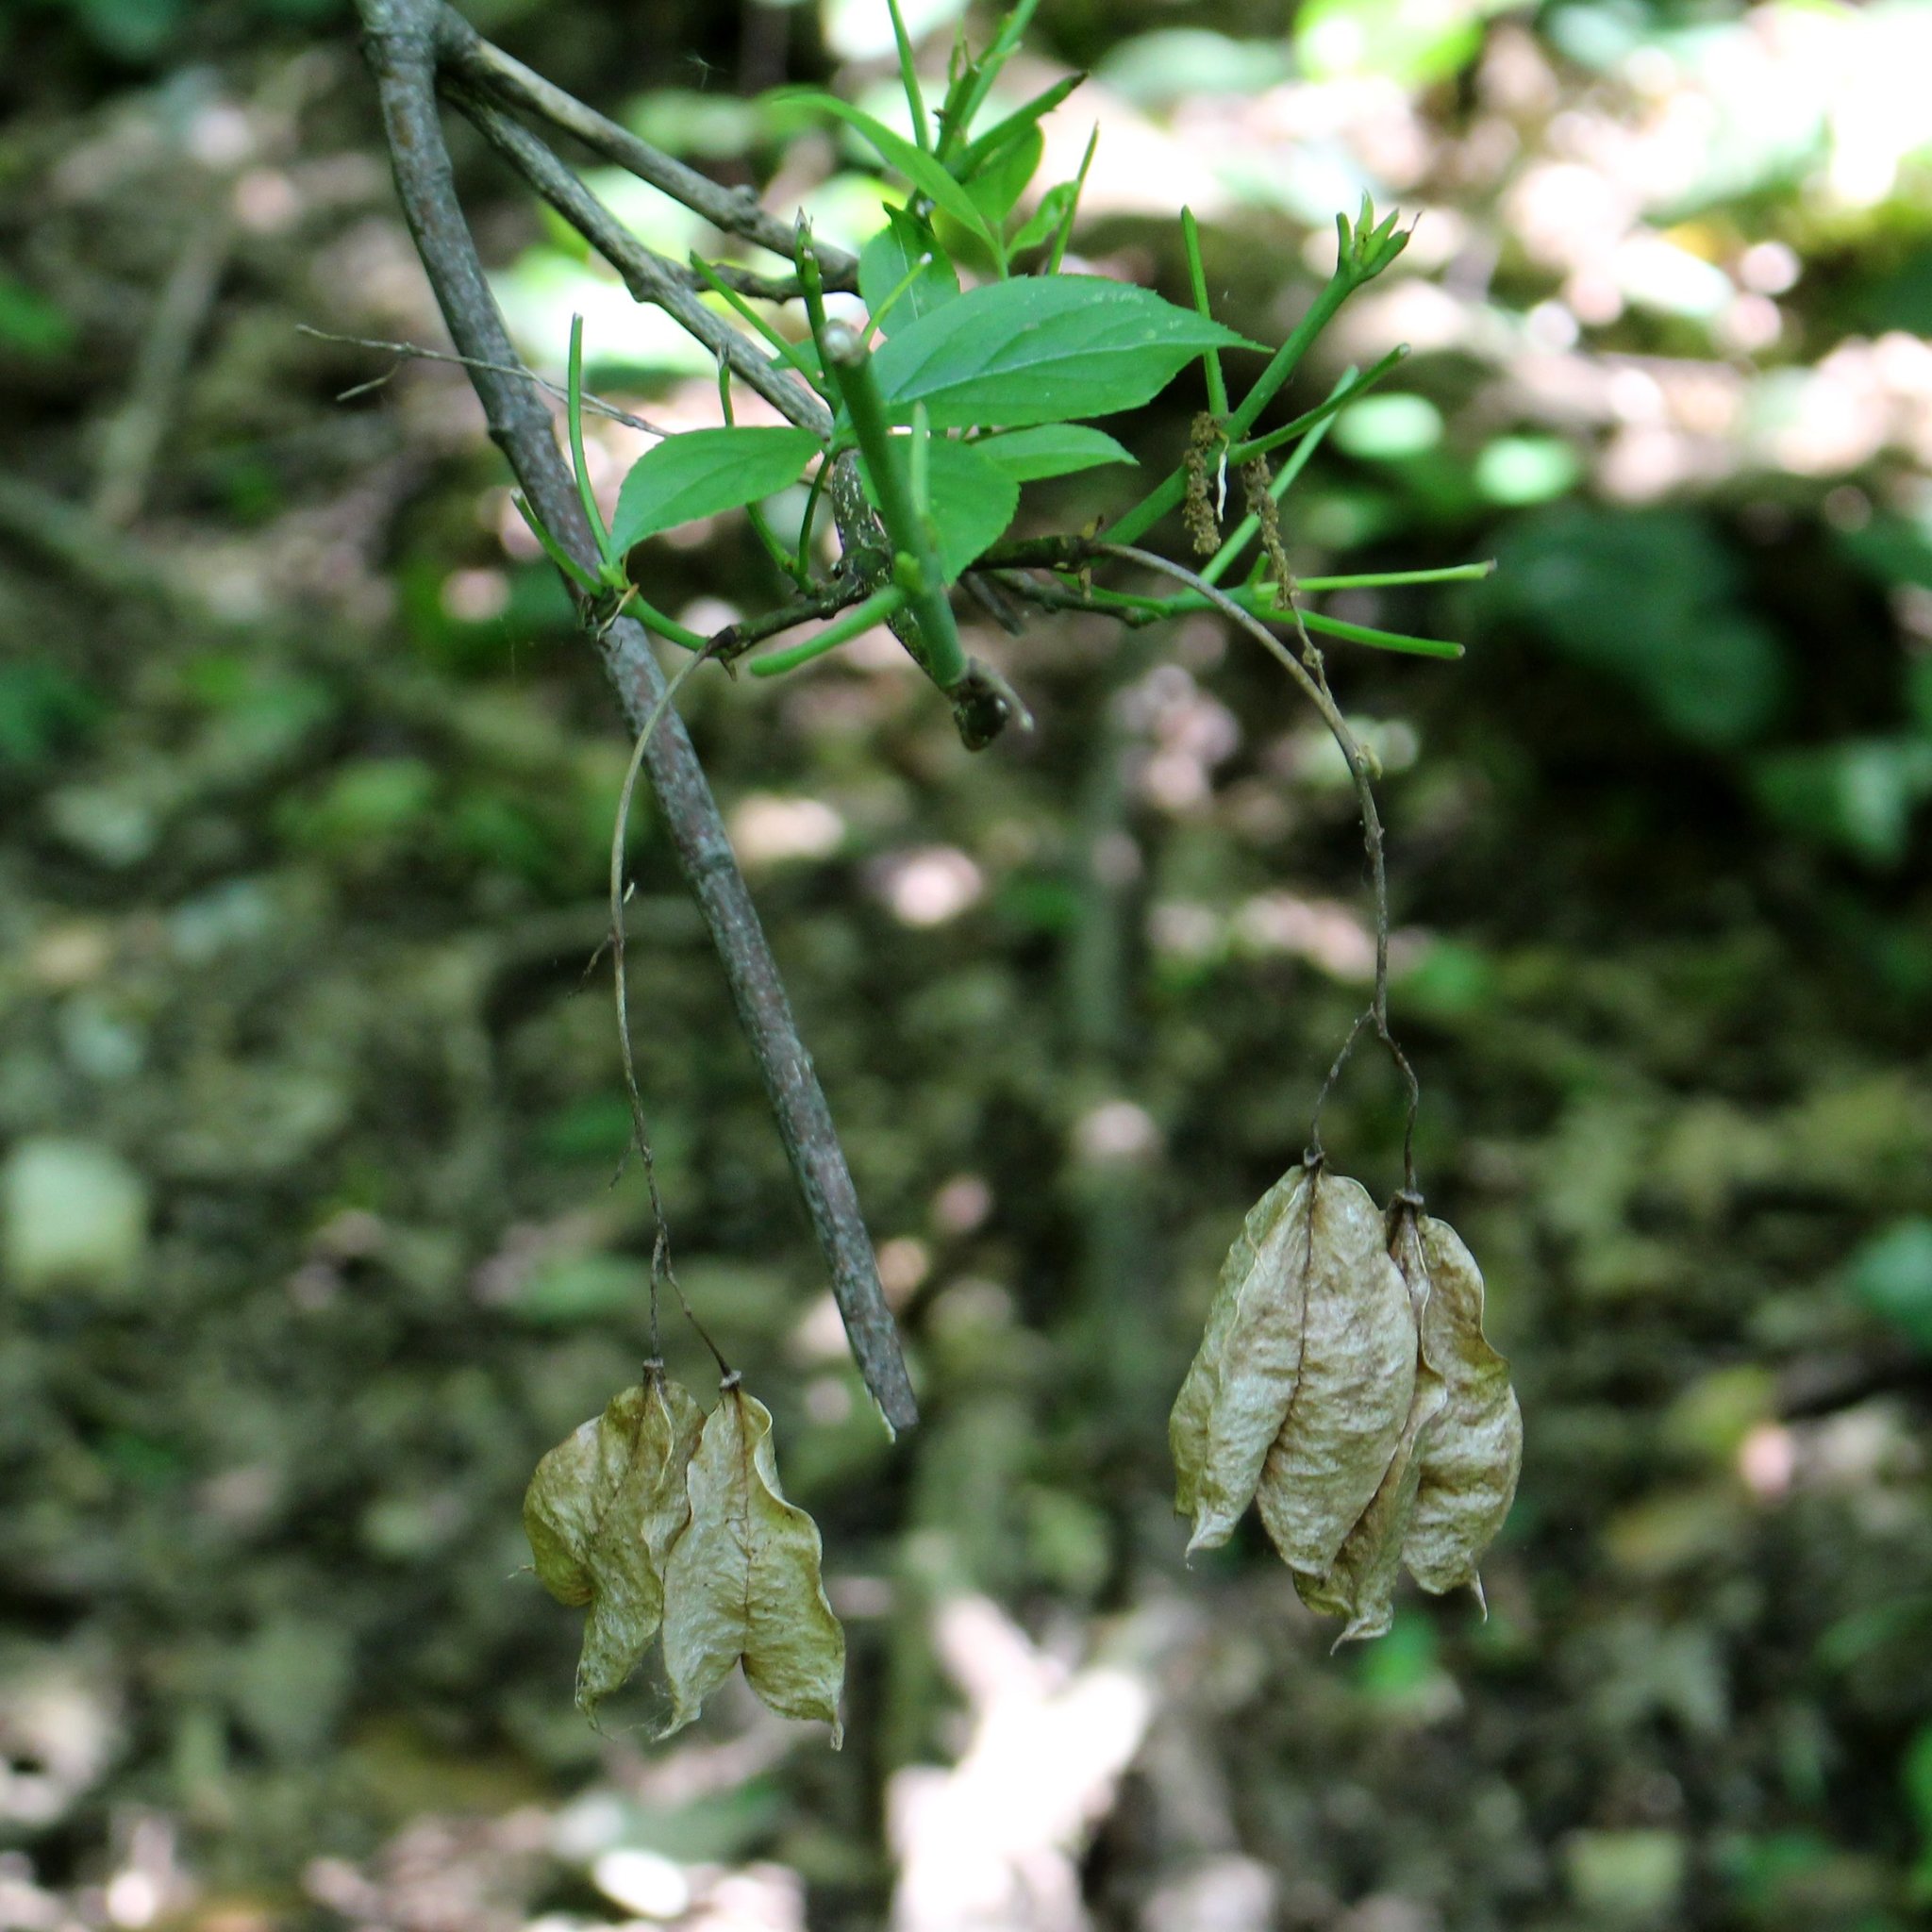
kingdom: Plantae
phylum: Tracheophyta
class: Magnoliopsida
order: Crossosomatales
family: Staphyleaceae
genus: Staphylea
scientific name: Staphylea colchica
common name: Caucasian bladdernut
